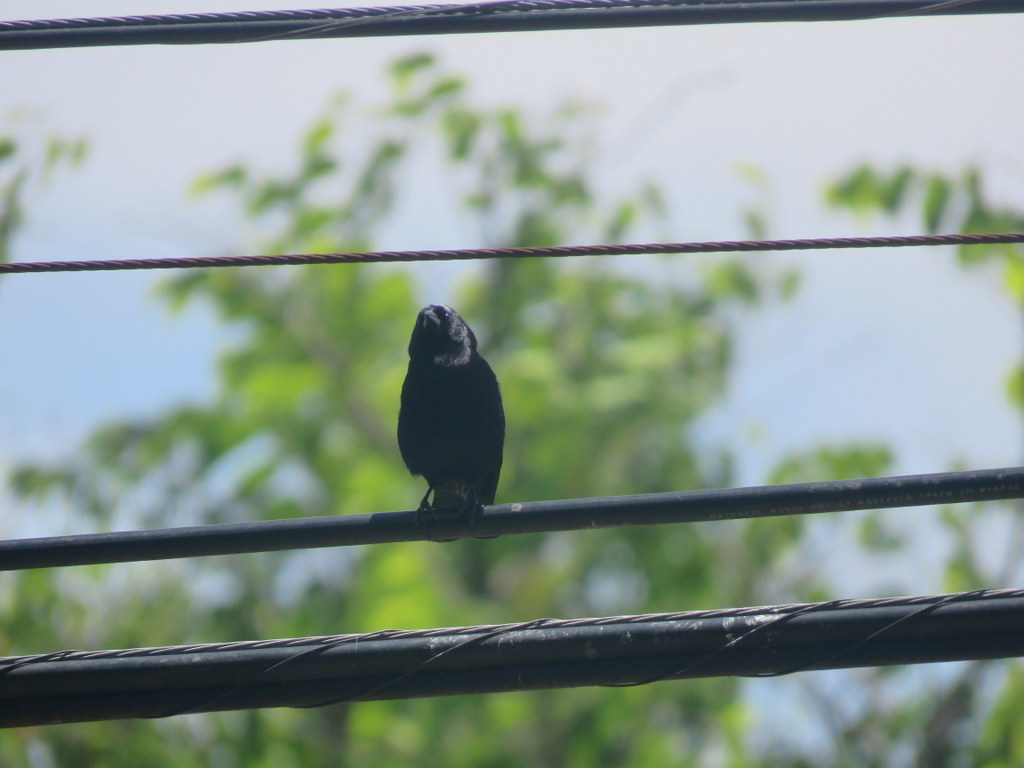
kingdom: Animalia
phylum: Chordata
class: Aves
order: Passeriformes
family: Icteridae
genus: Molothrus
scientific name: Molothrus bonariensis
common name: Shiny cowbird
